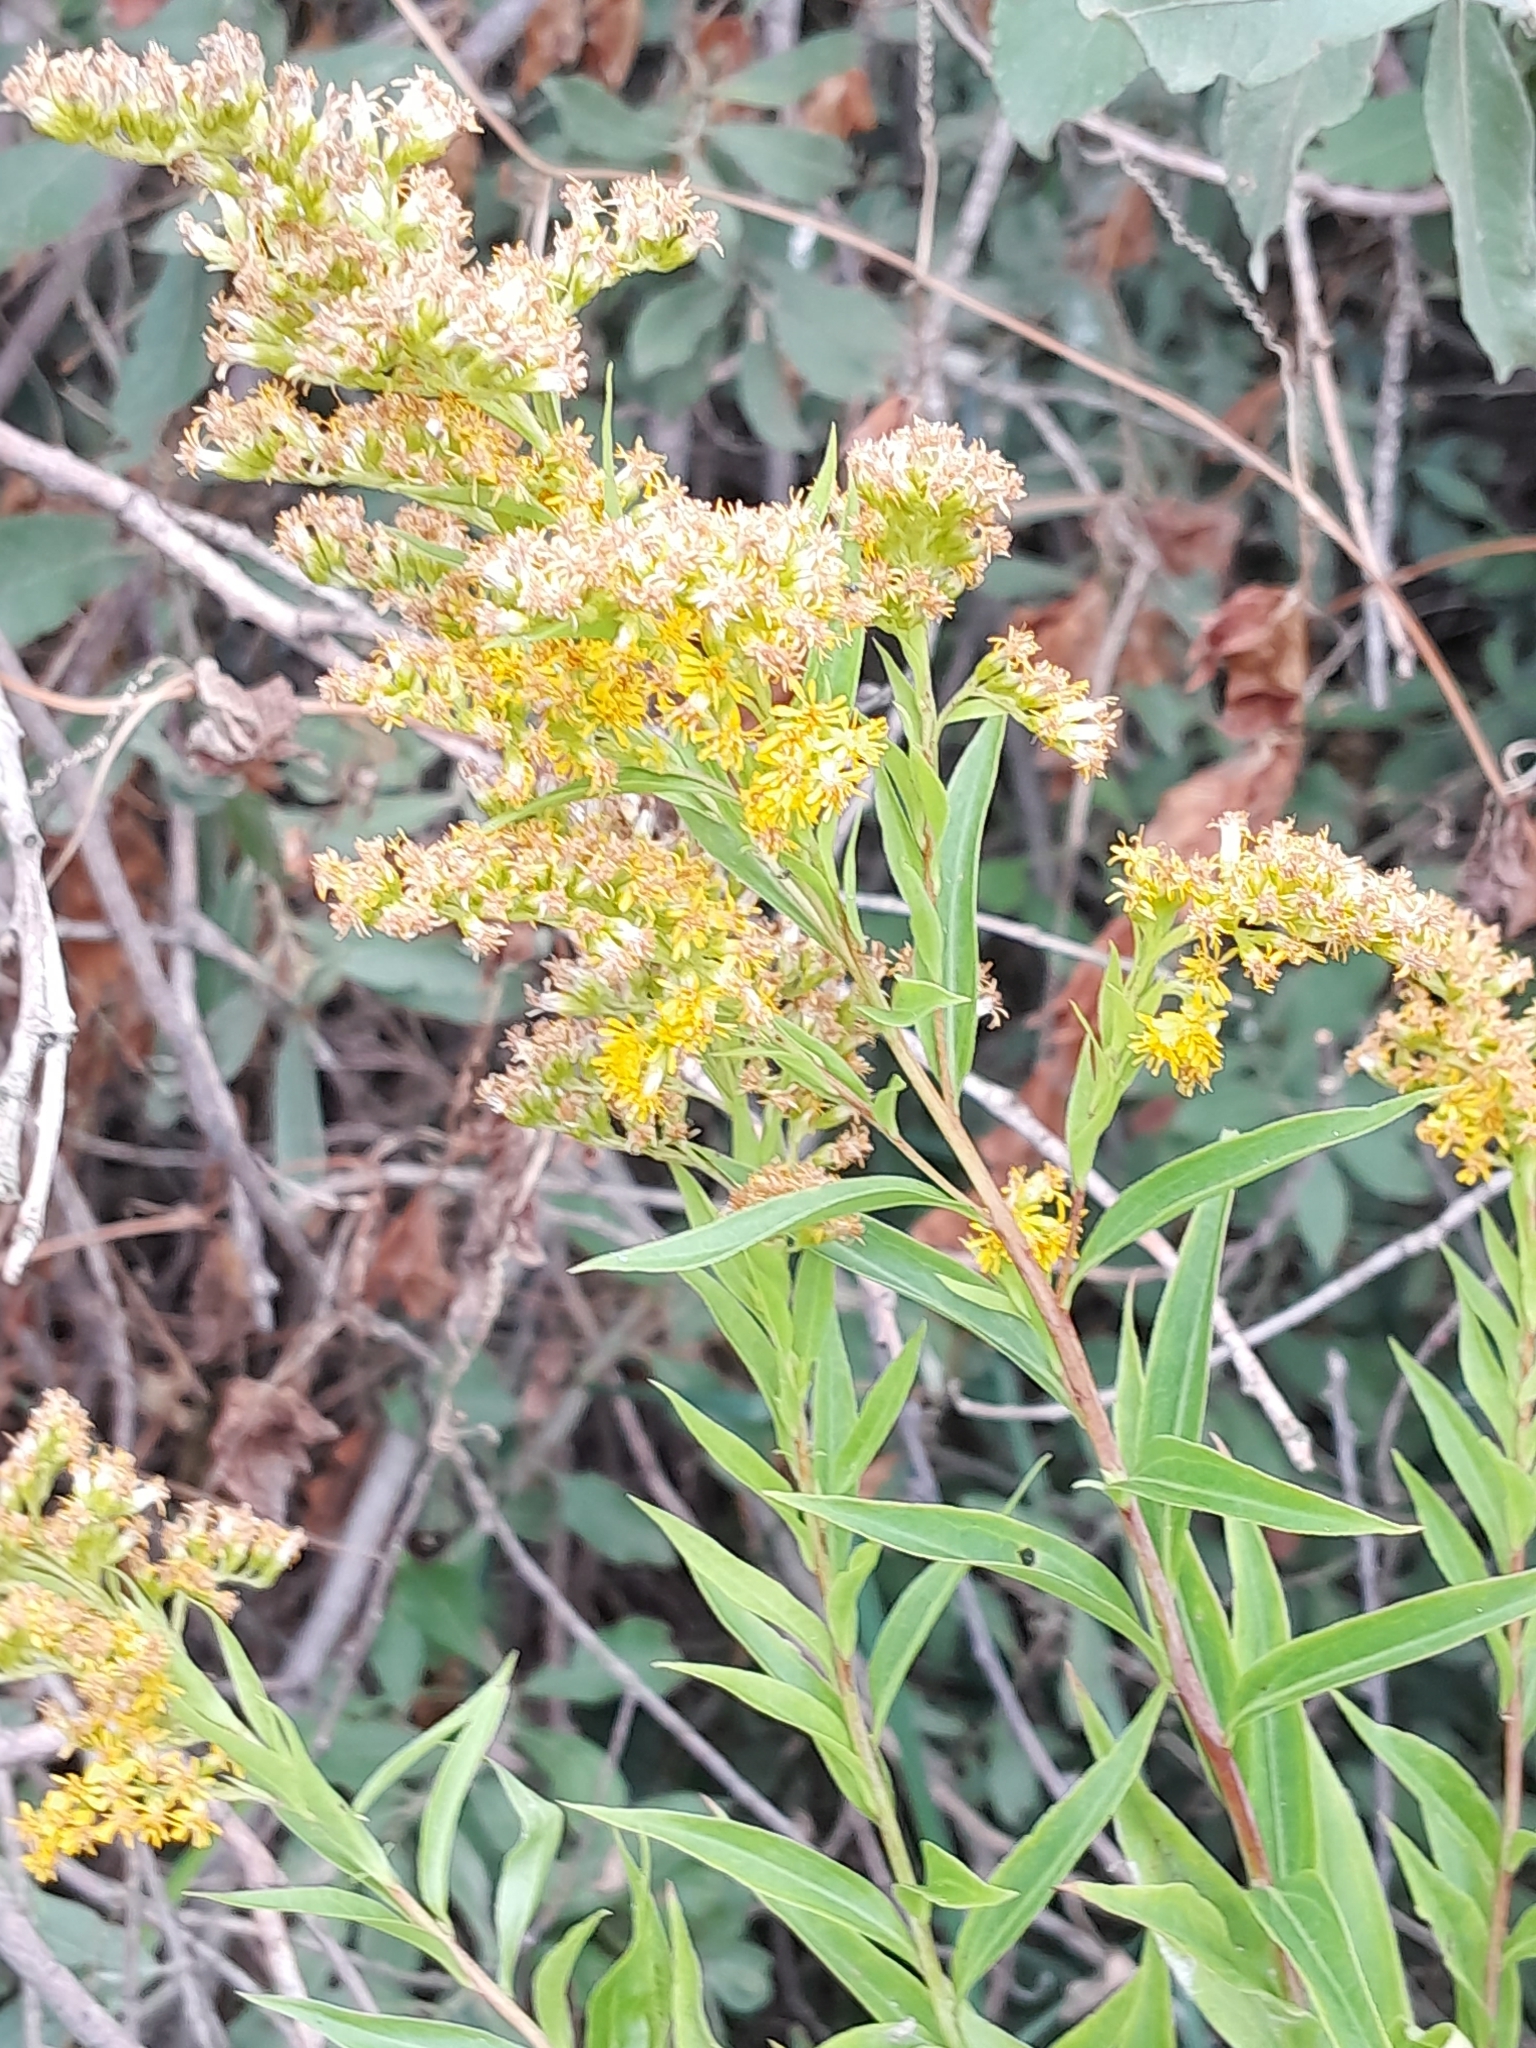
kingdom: Plantae
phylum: Tracheophyta
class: Magnoliopsida
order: Asterales
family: Asteraceae
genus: Solidago
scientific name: Solidago gigantea
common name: Giant goldenrod
